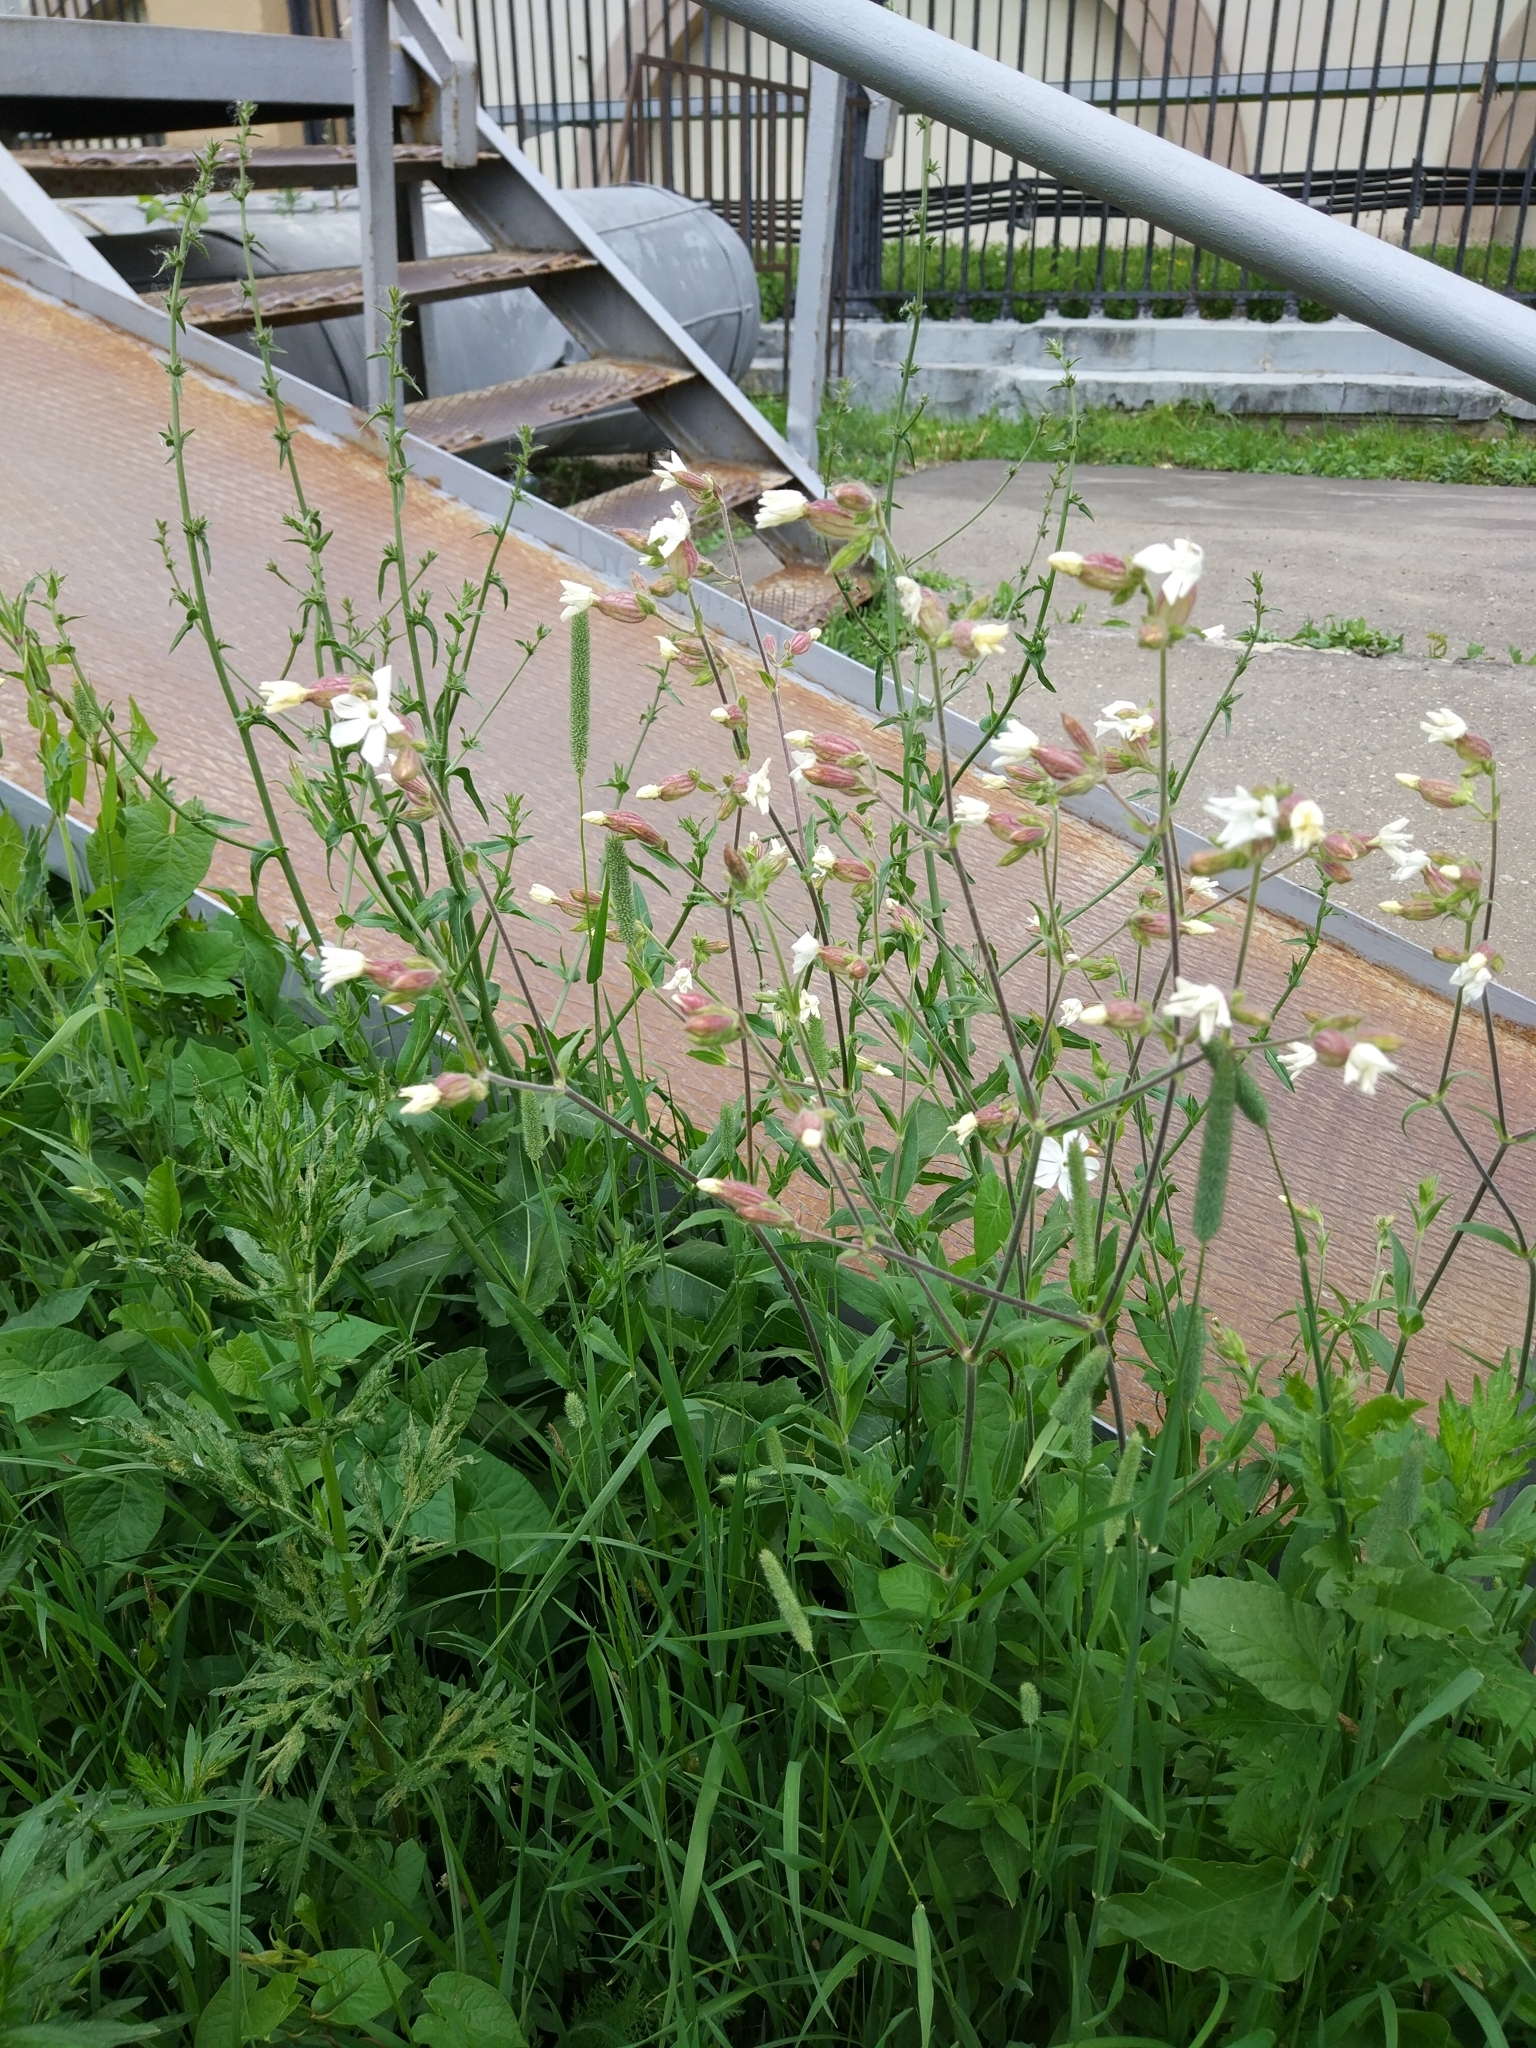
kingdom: Plantae
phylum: Tracheophyta
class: Magnoliopsida
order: Caryophyllales
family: Caryophyllaceae
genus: Silene
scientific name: Silene latifolia
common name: White campion
